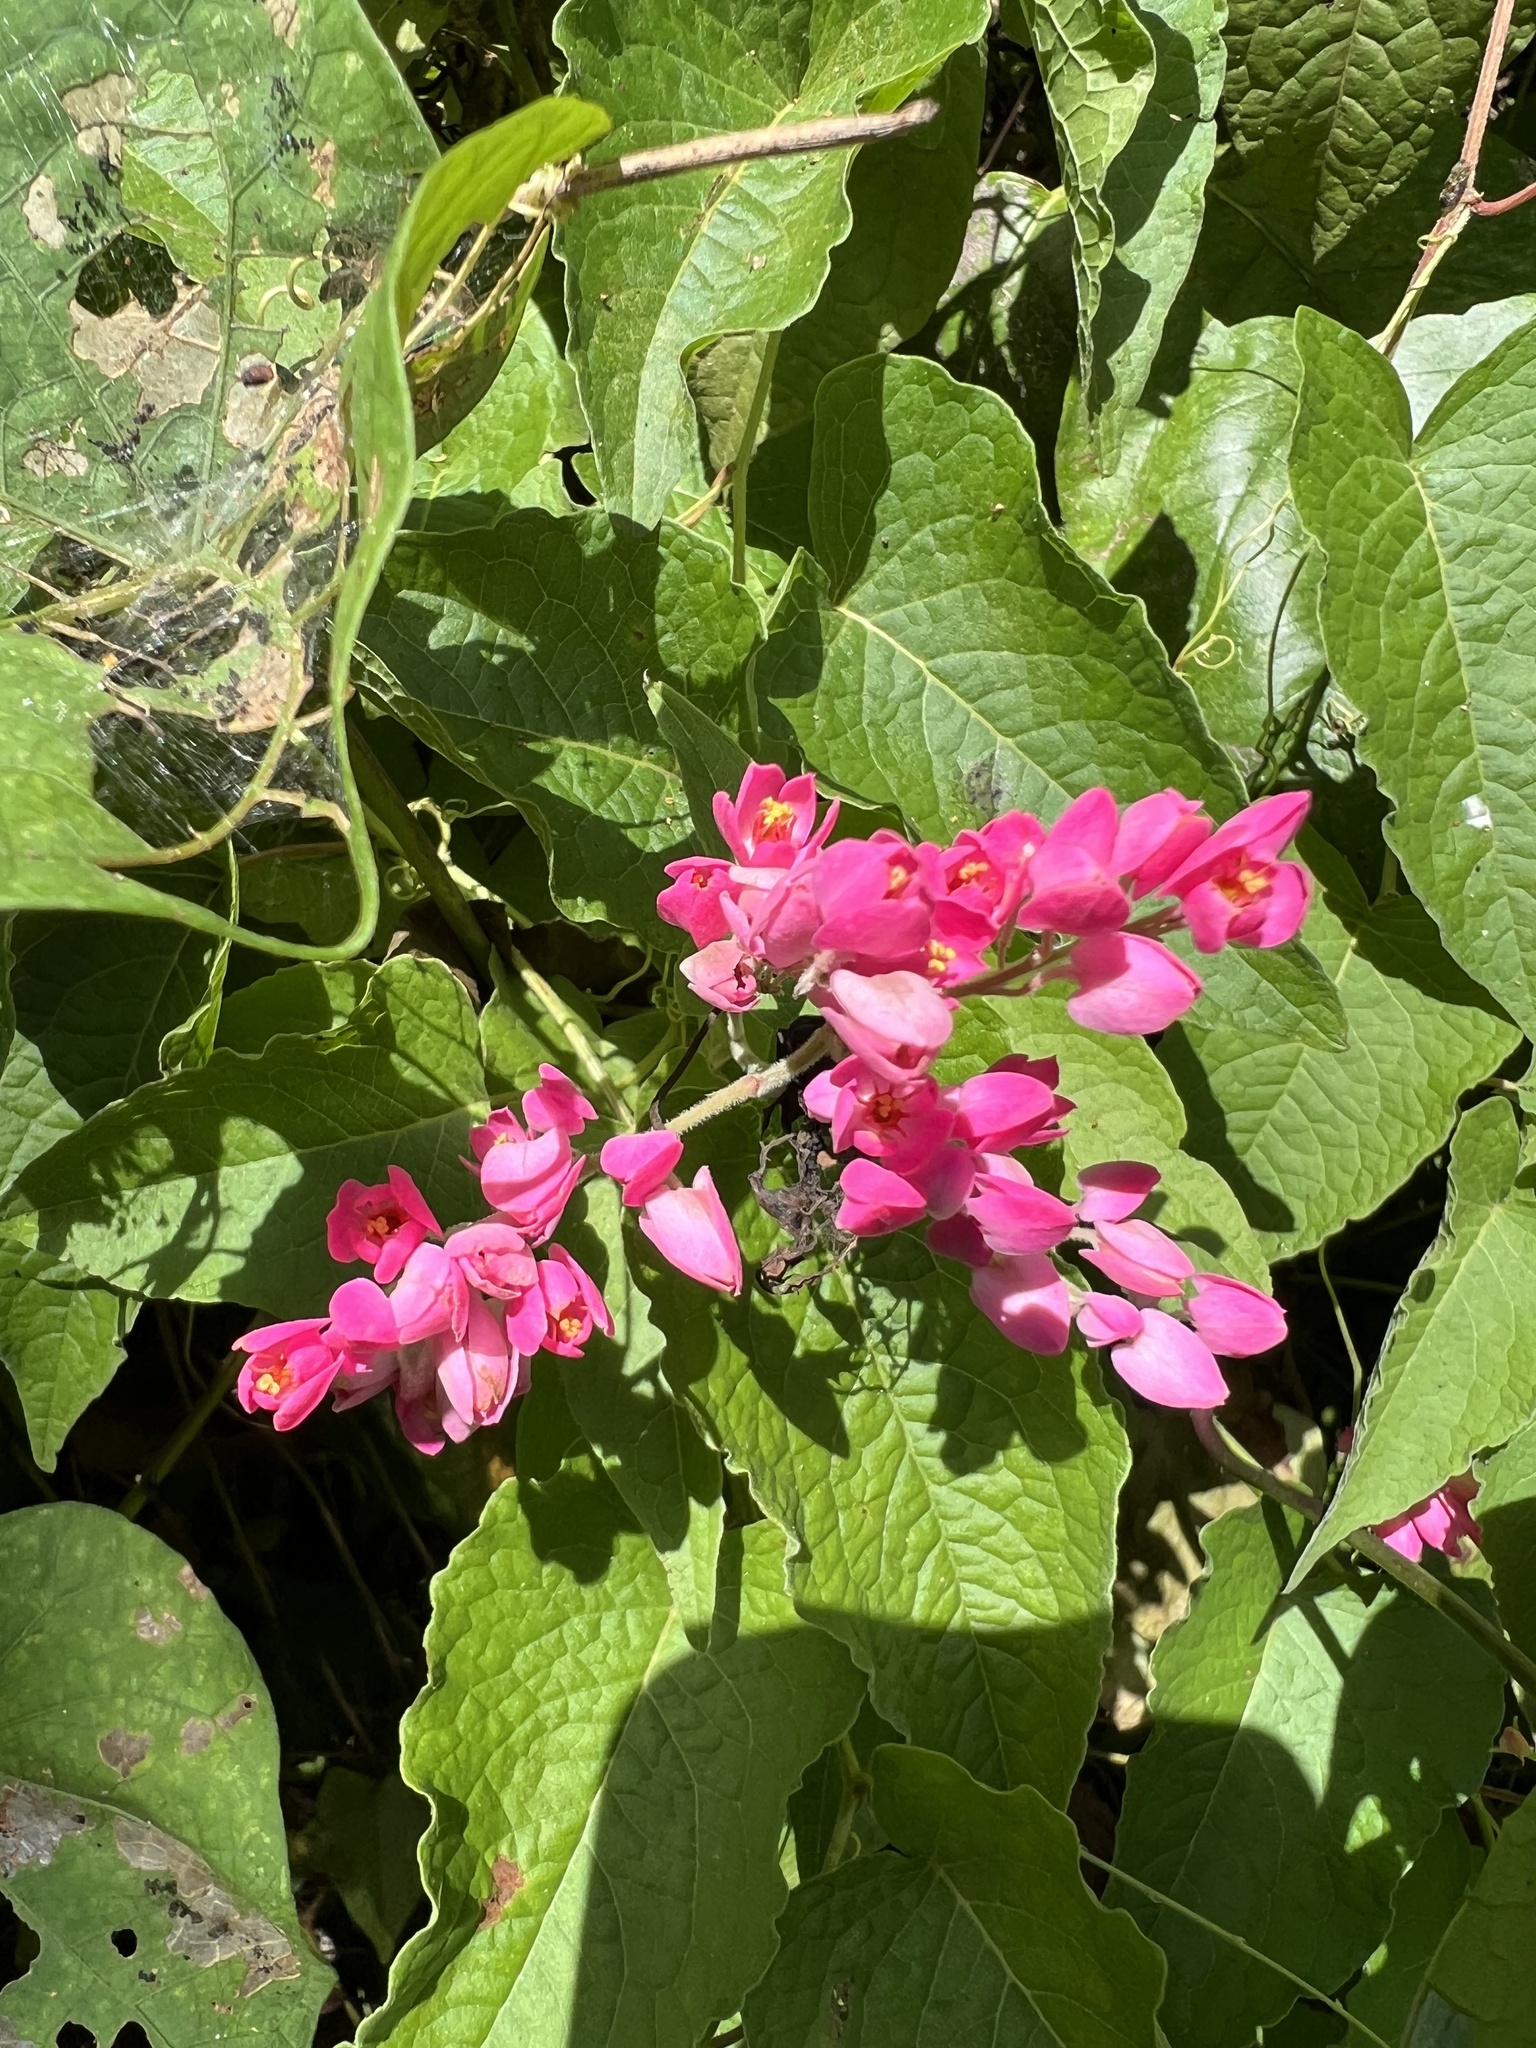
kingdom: Plantae
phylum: Tracheophyta
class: Magnoliopsida
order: Caryophyllales
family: Polygonaceae
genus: Antigonon
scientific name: Antigonon leptopus
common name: Coral vine
